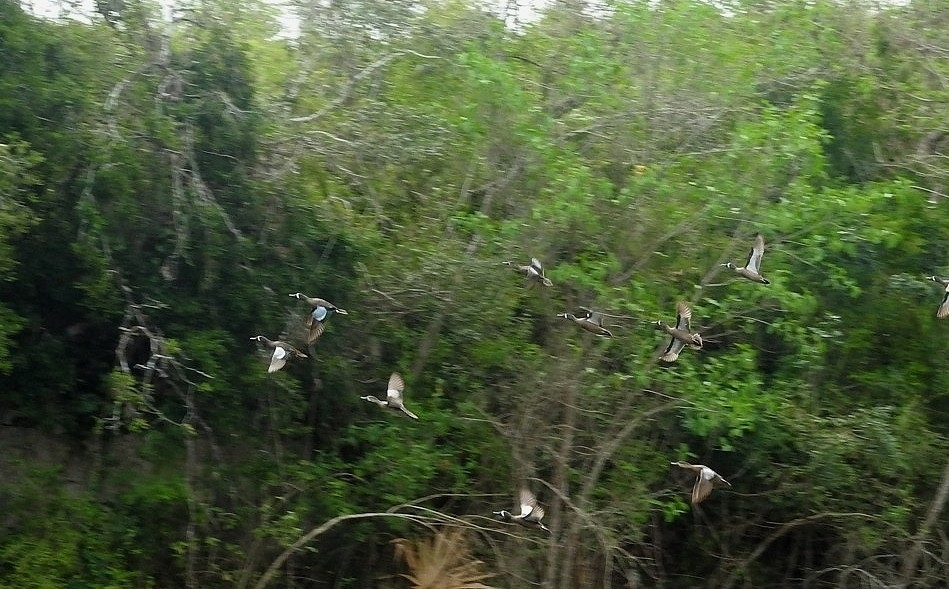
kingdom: Animalia
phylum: Chordata
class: Aves
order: Anseriformes
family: Anatidae
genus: Spatula
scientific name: Spatula discors
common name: Blue-winged teal
